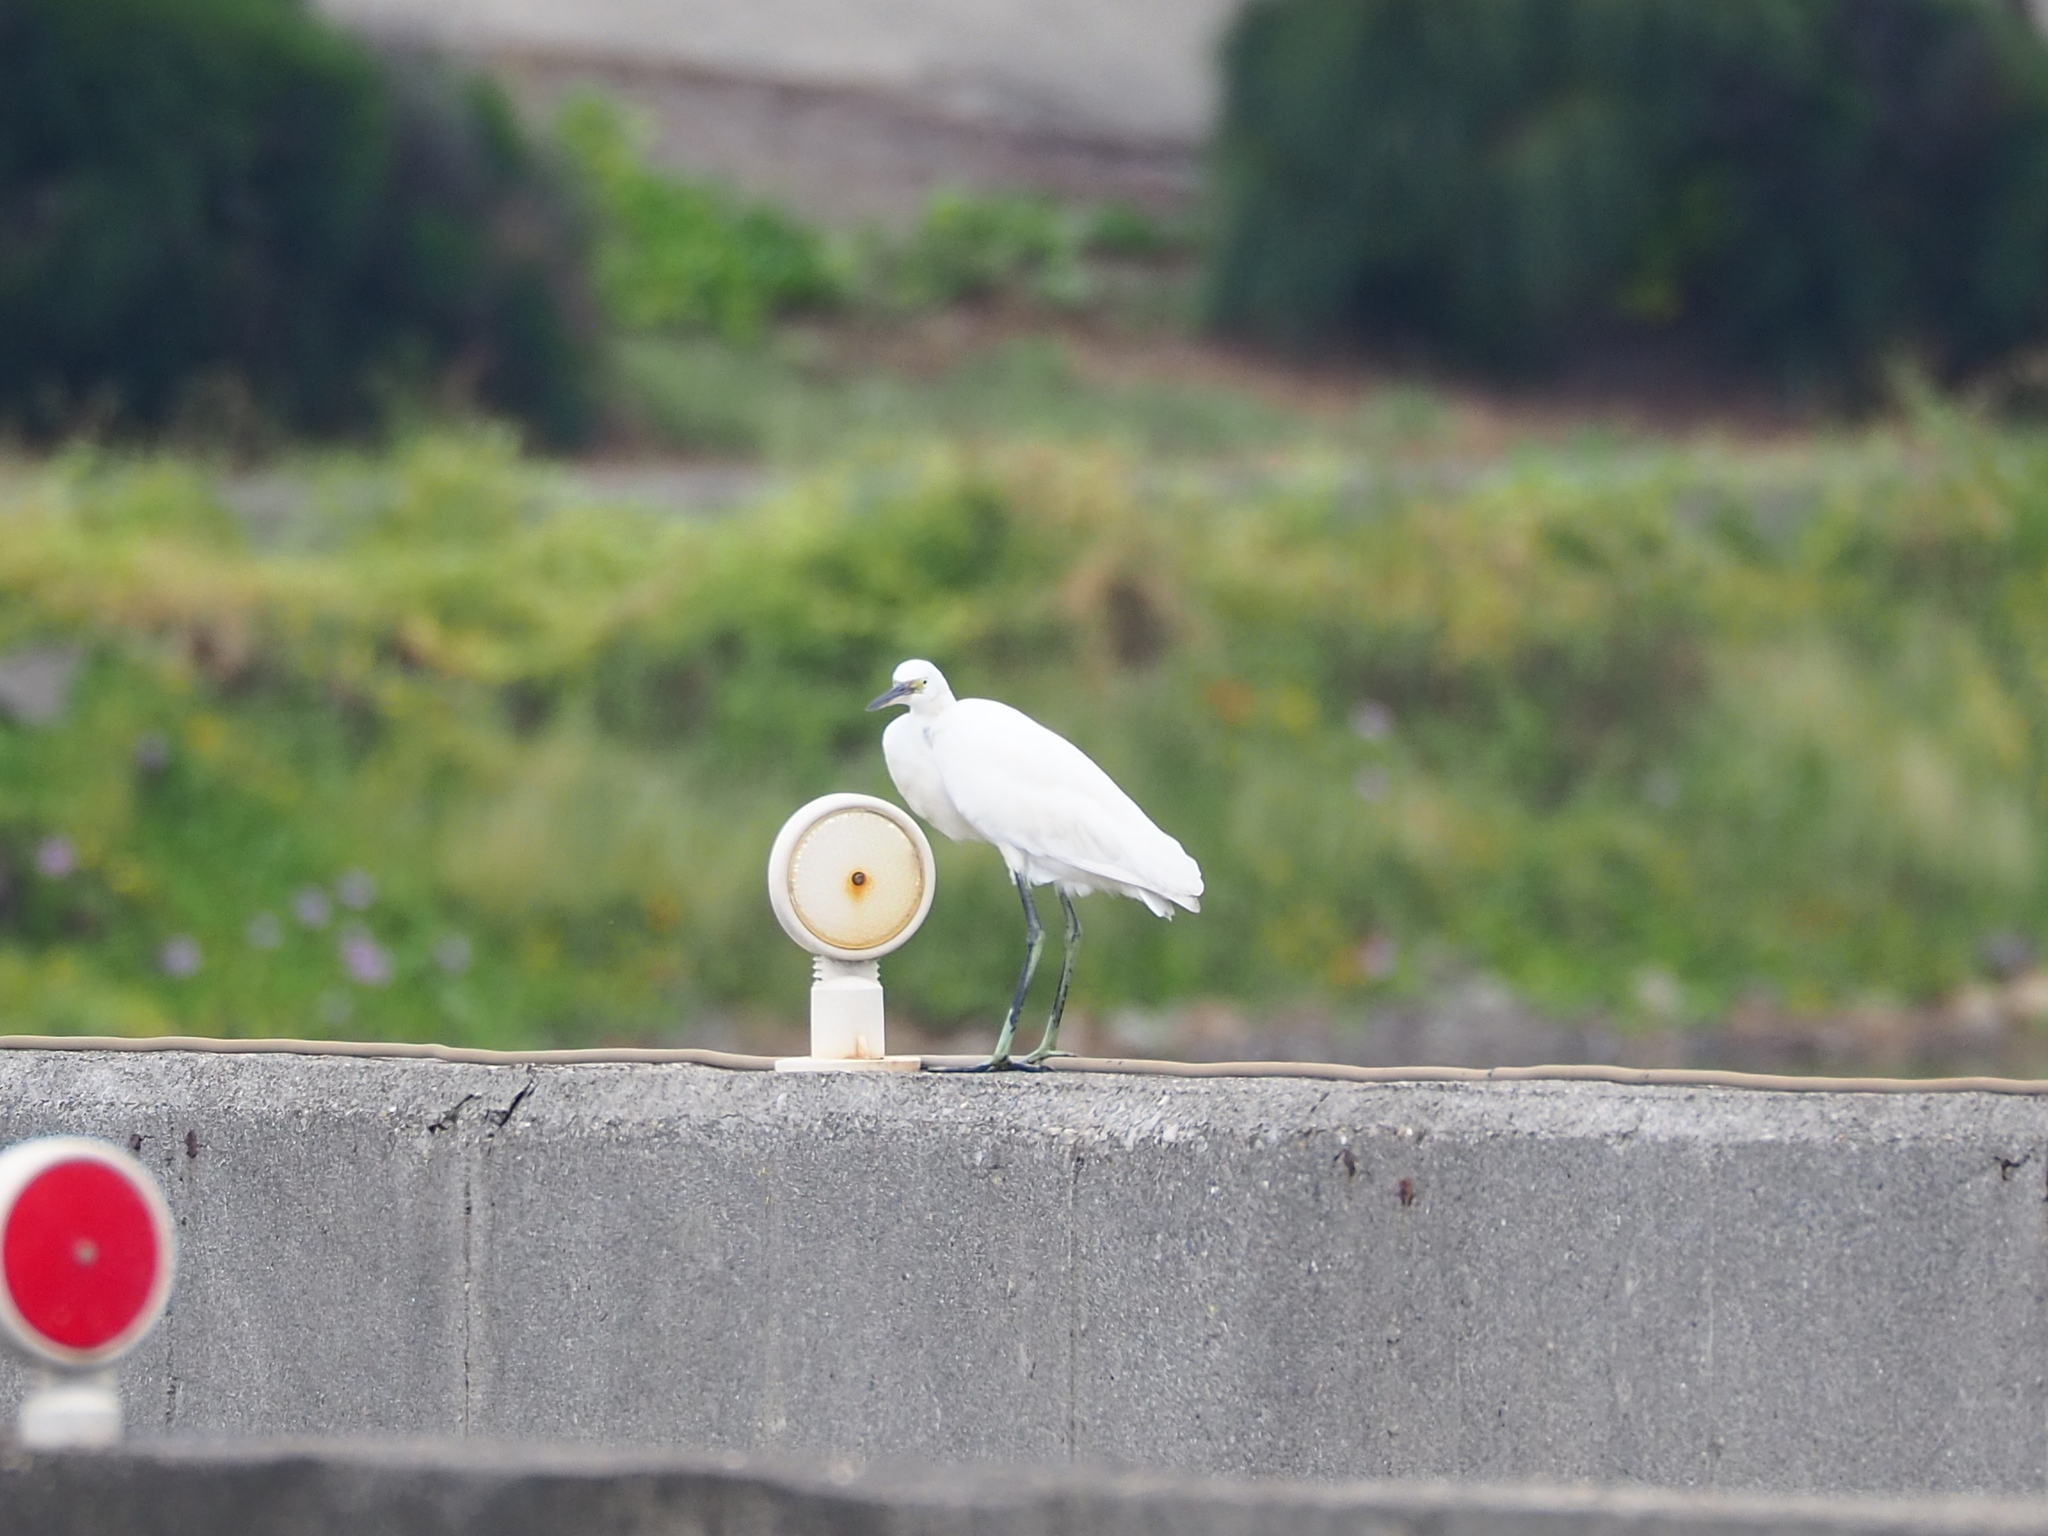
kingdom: Animalia
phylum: Chordata
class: Aves
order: Pelecaniformes
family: Ardeidae
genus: Egretta
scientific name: Egretta garzetta
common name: Little egret
